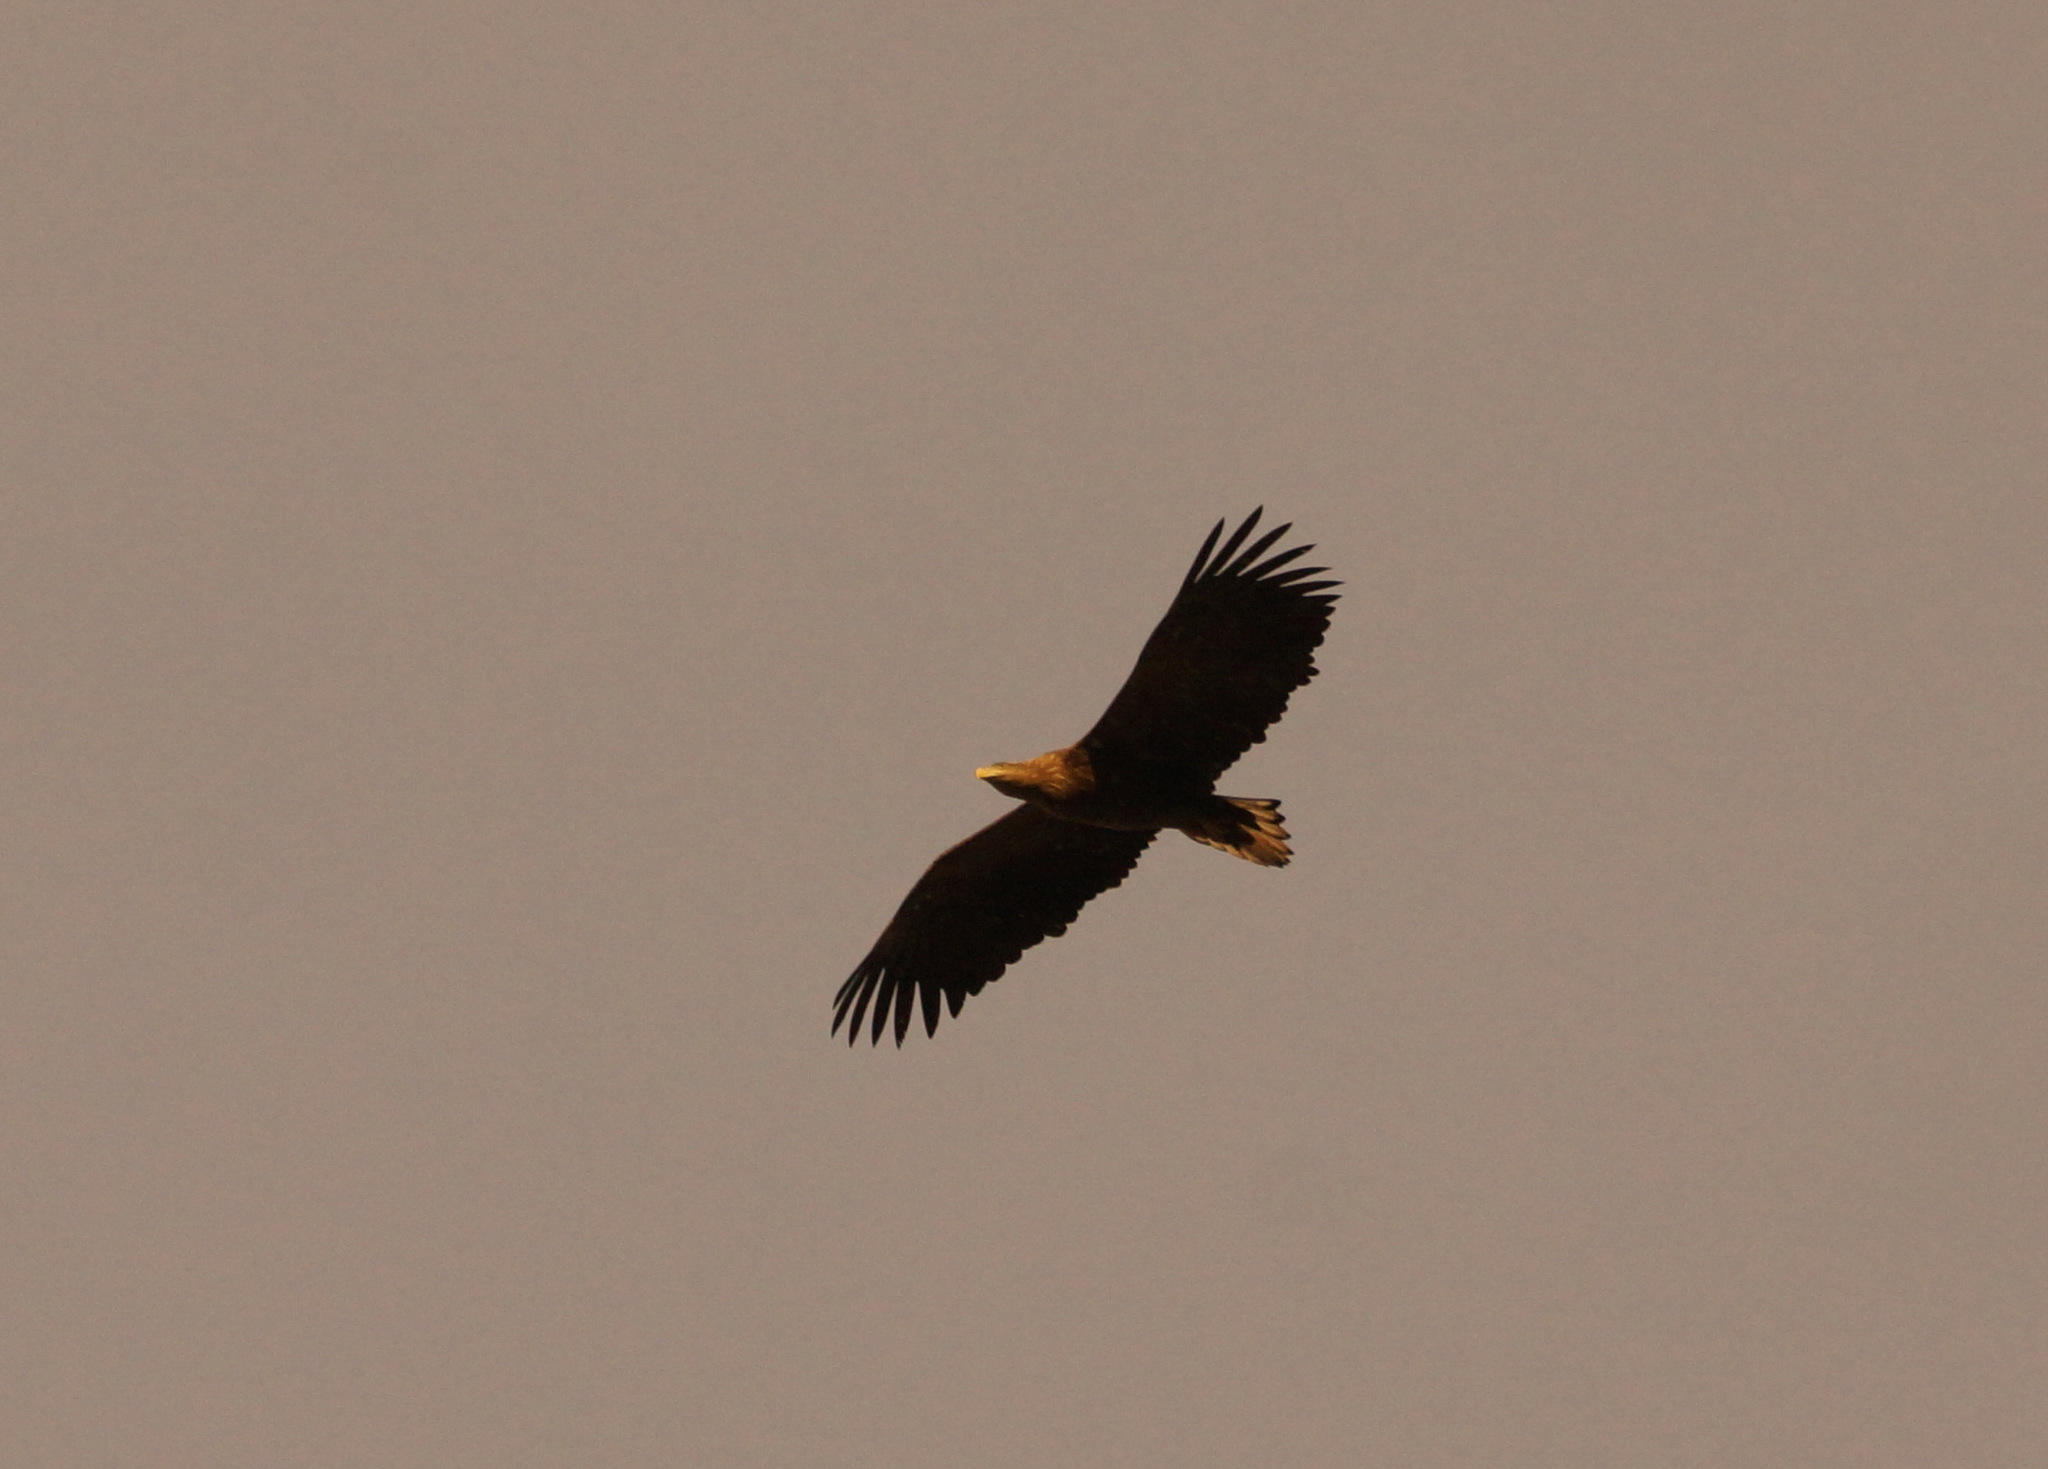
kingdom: Animalia
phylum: Chordata
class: Aves
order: Accipitriformes
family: Accipitridae
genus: Haliaeetus
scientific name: Haliaeetus albicilla
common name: White-tailed eagle
